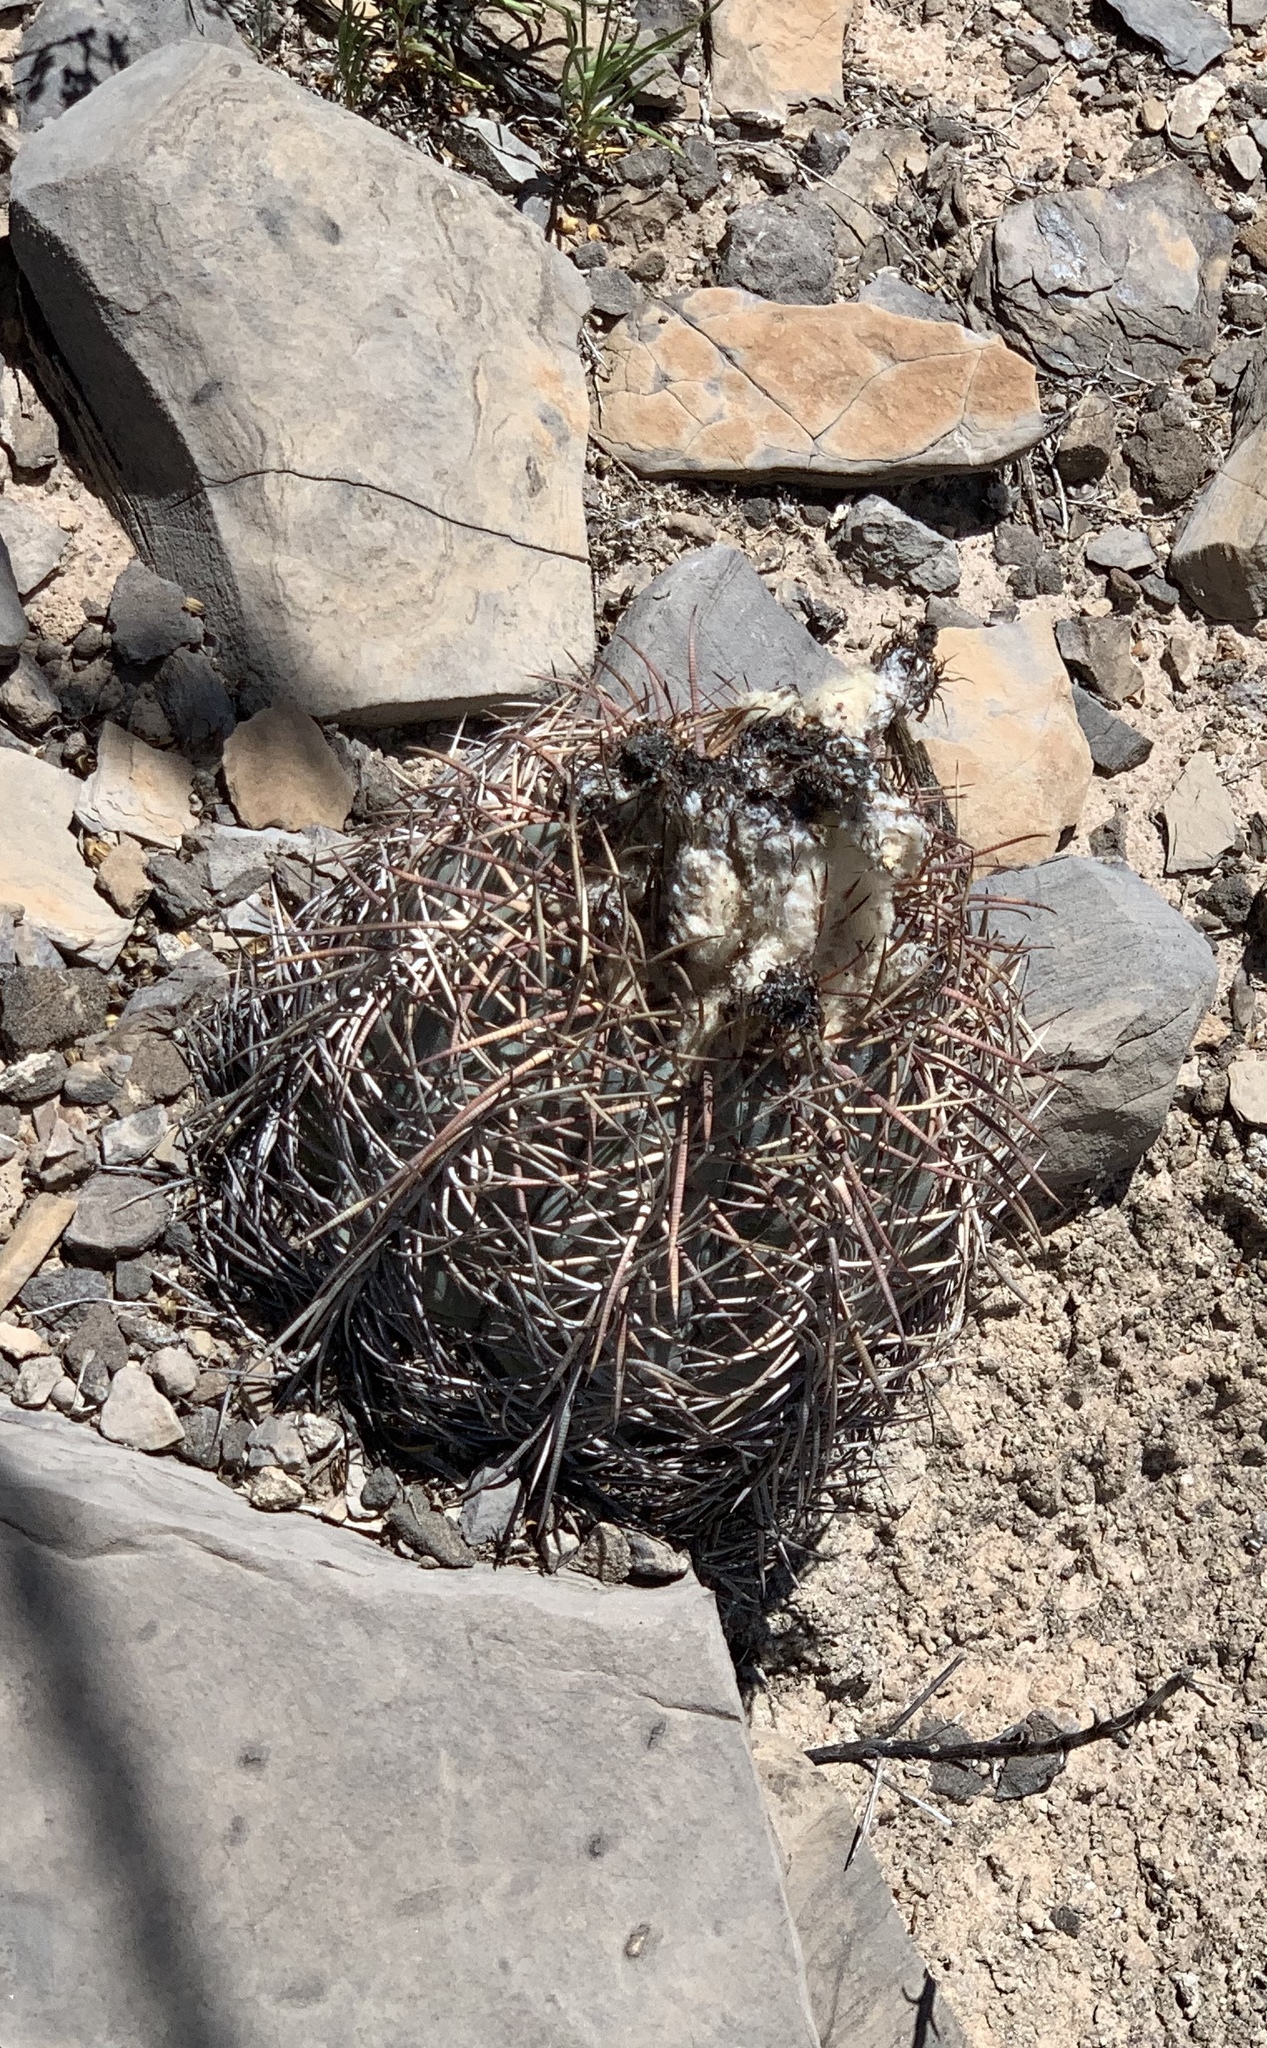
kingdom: Plantae
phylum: Tracheophyta
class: Magnoliopsida
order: Caryophyllales
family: Cactaceae
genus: Echinocactus
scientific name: Echinocactus horizonthalonius
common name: Devilshead
